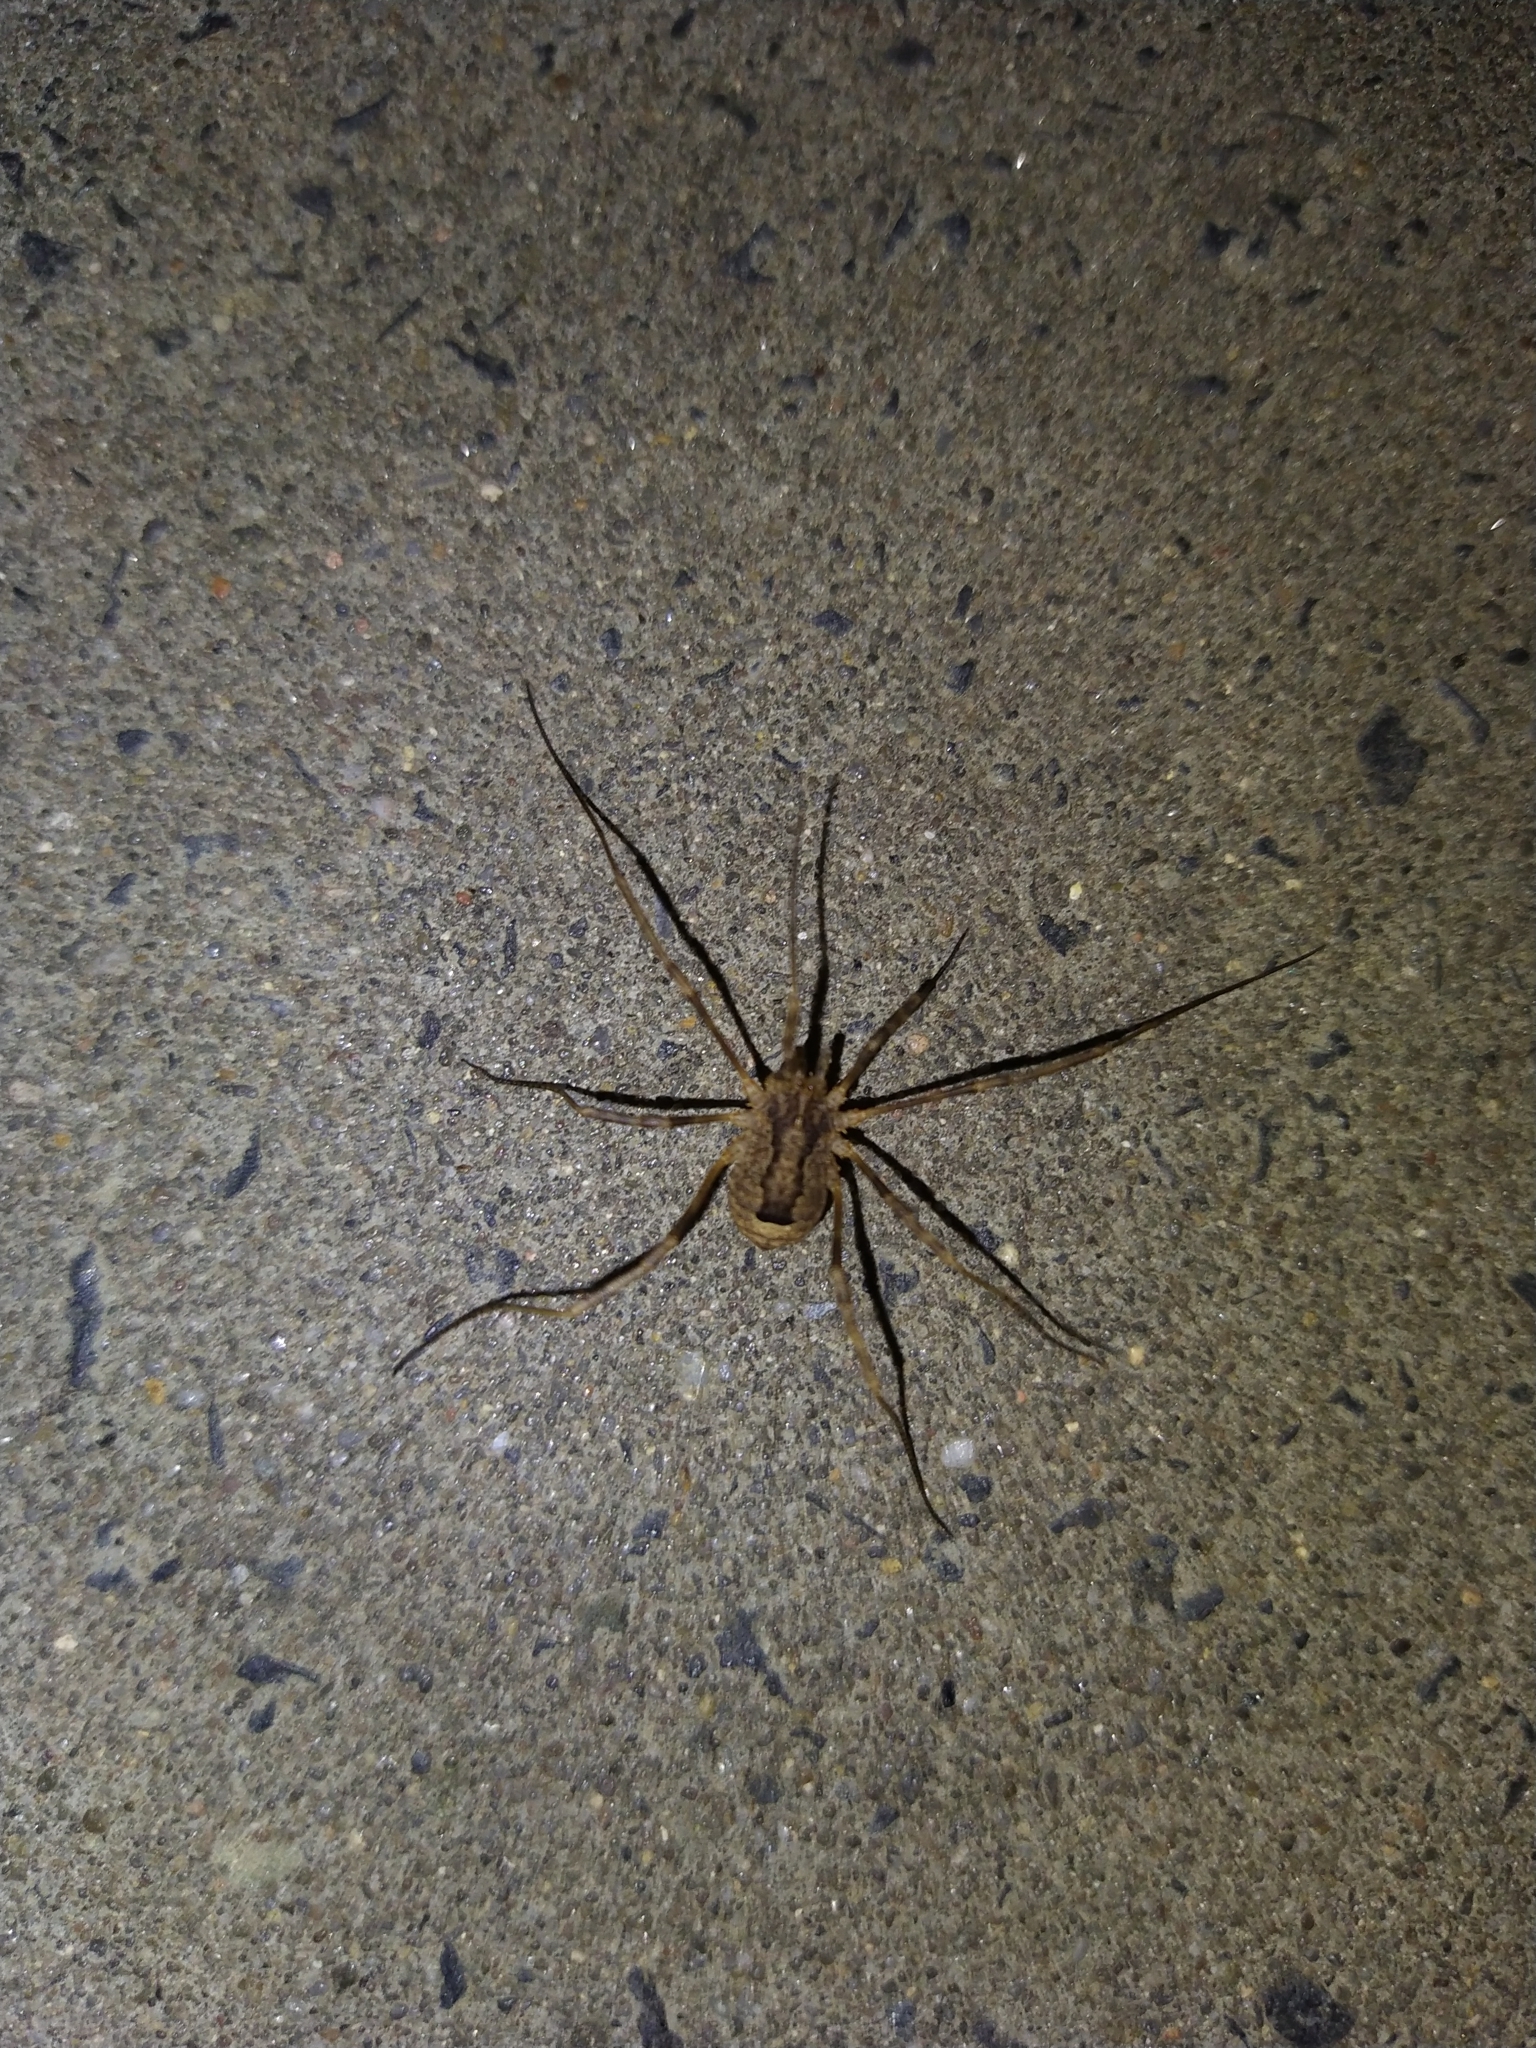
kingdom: Animalia
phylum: Arthropoda
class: Arachnida
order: Opiliones
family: Phalangiidae
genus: Odiellus
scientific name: Odiellus spinosus
